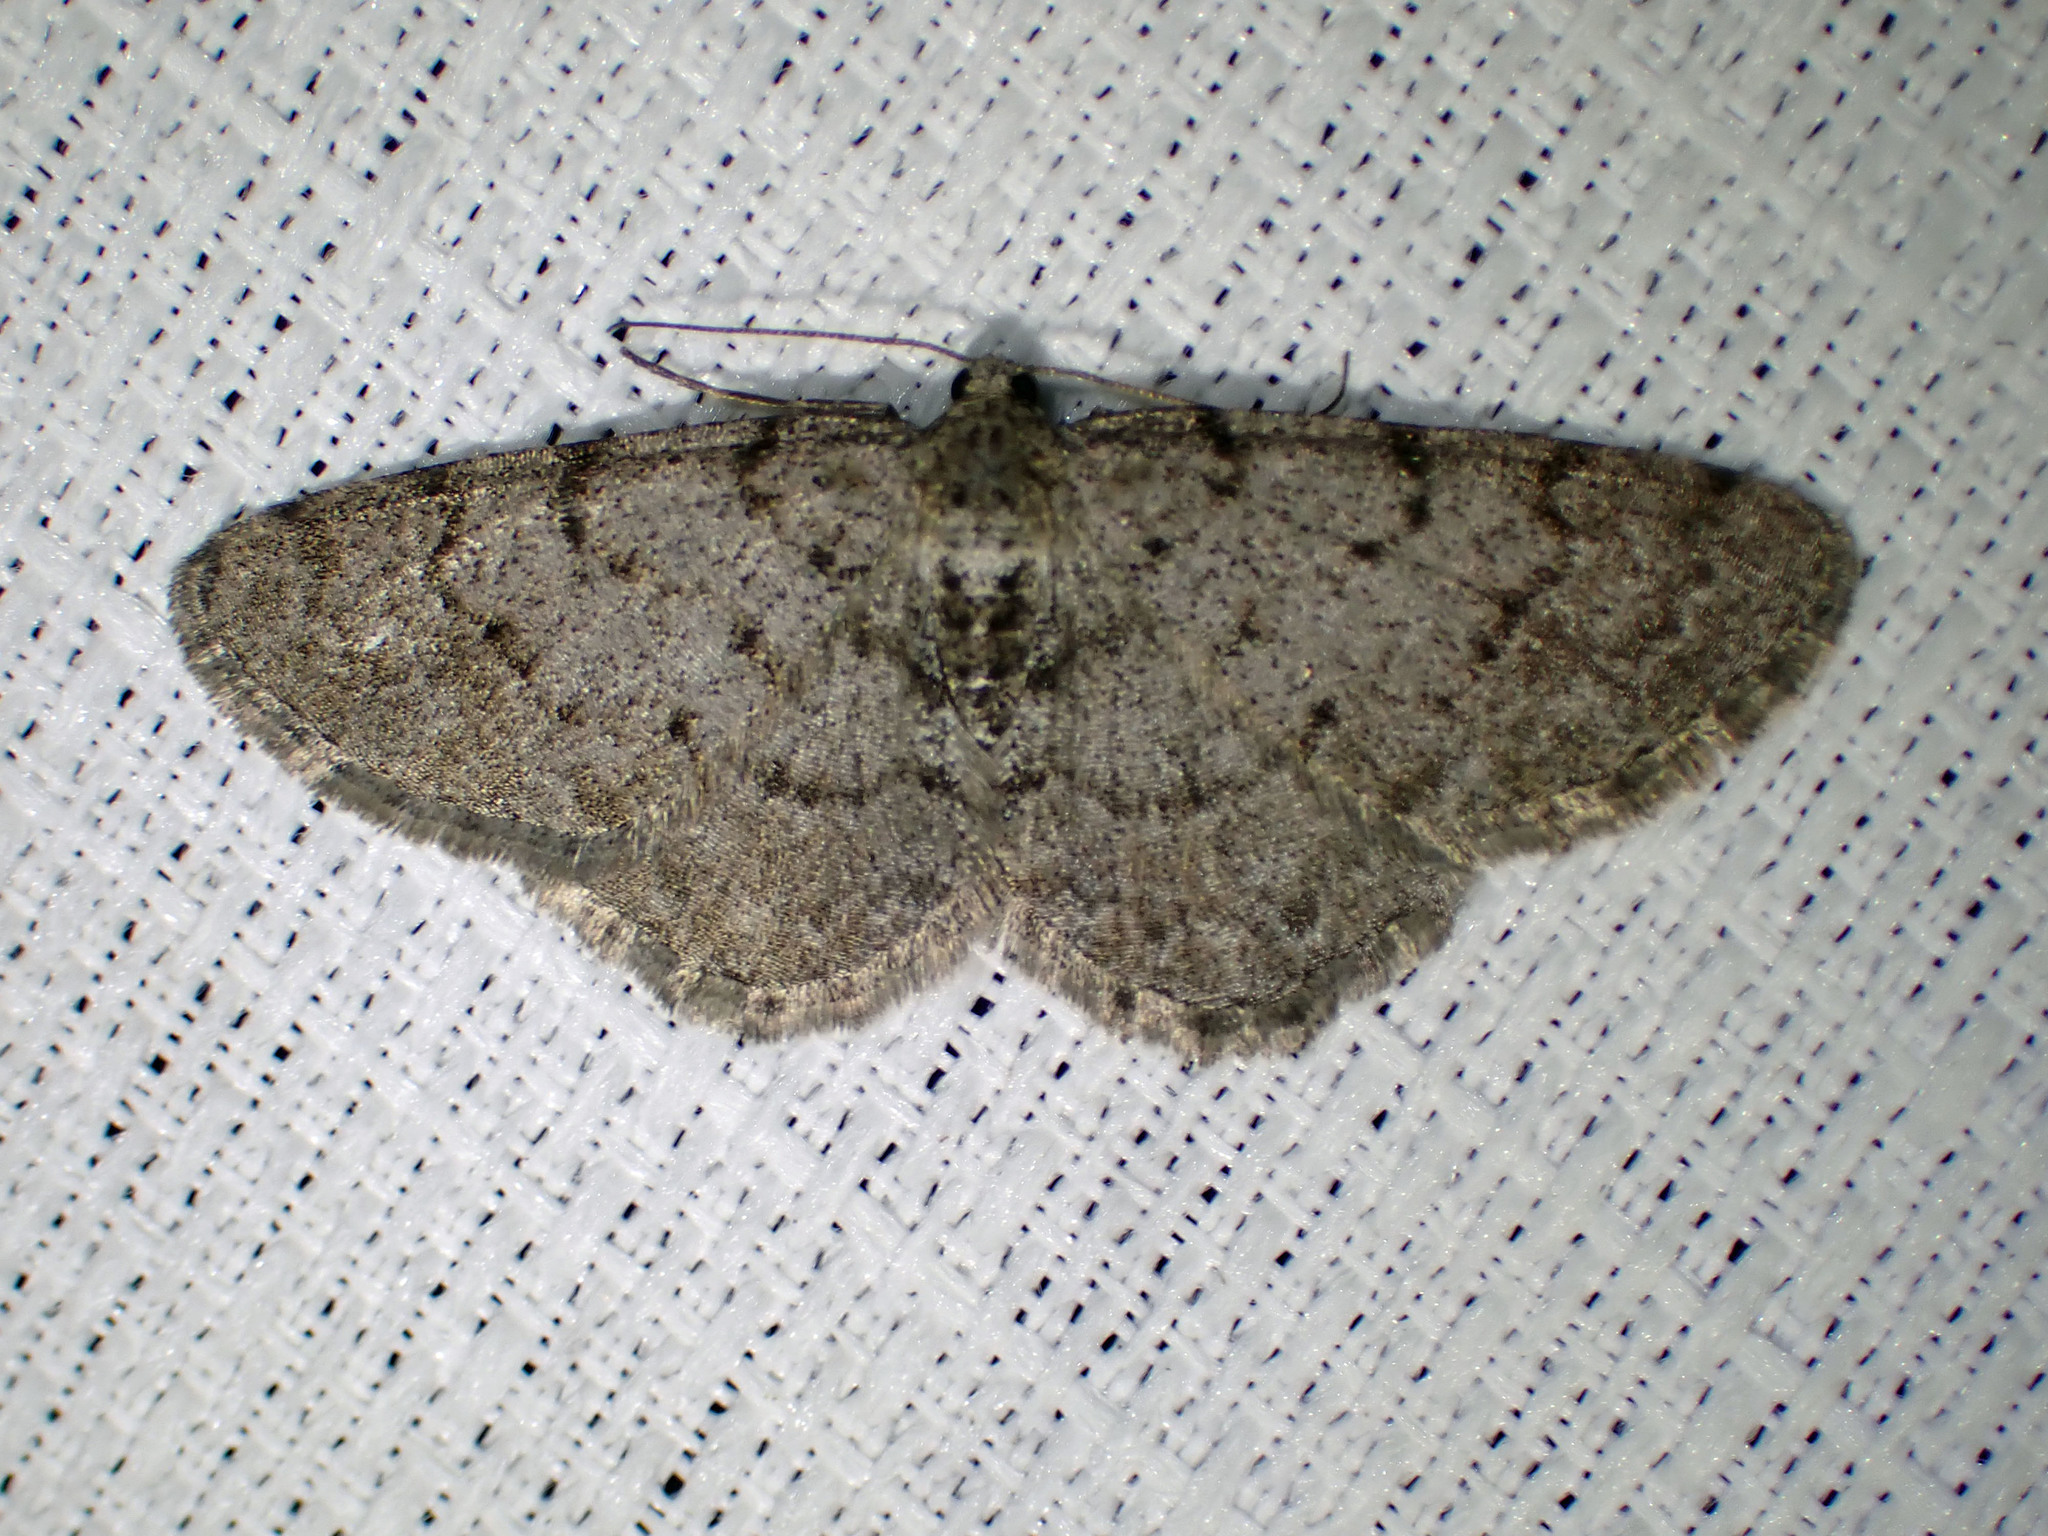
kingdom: Animalia
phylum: Arthropoda
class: Insecta
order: Lepidoptera
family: Geometridae
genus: Aethalura
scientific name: Aethalura intertexta
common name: Four-barred gray
